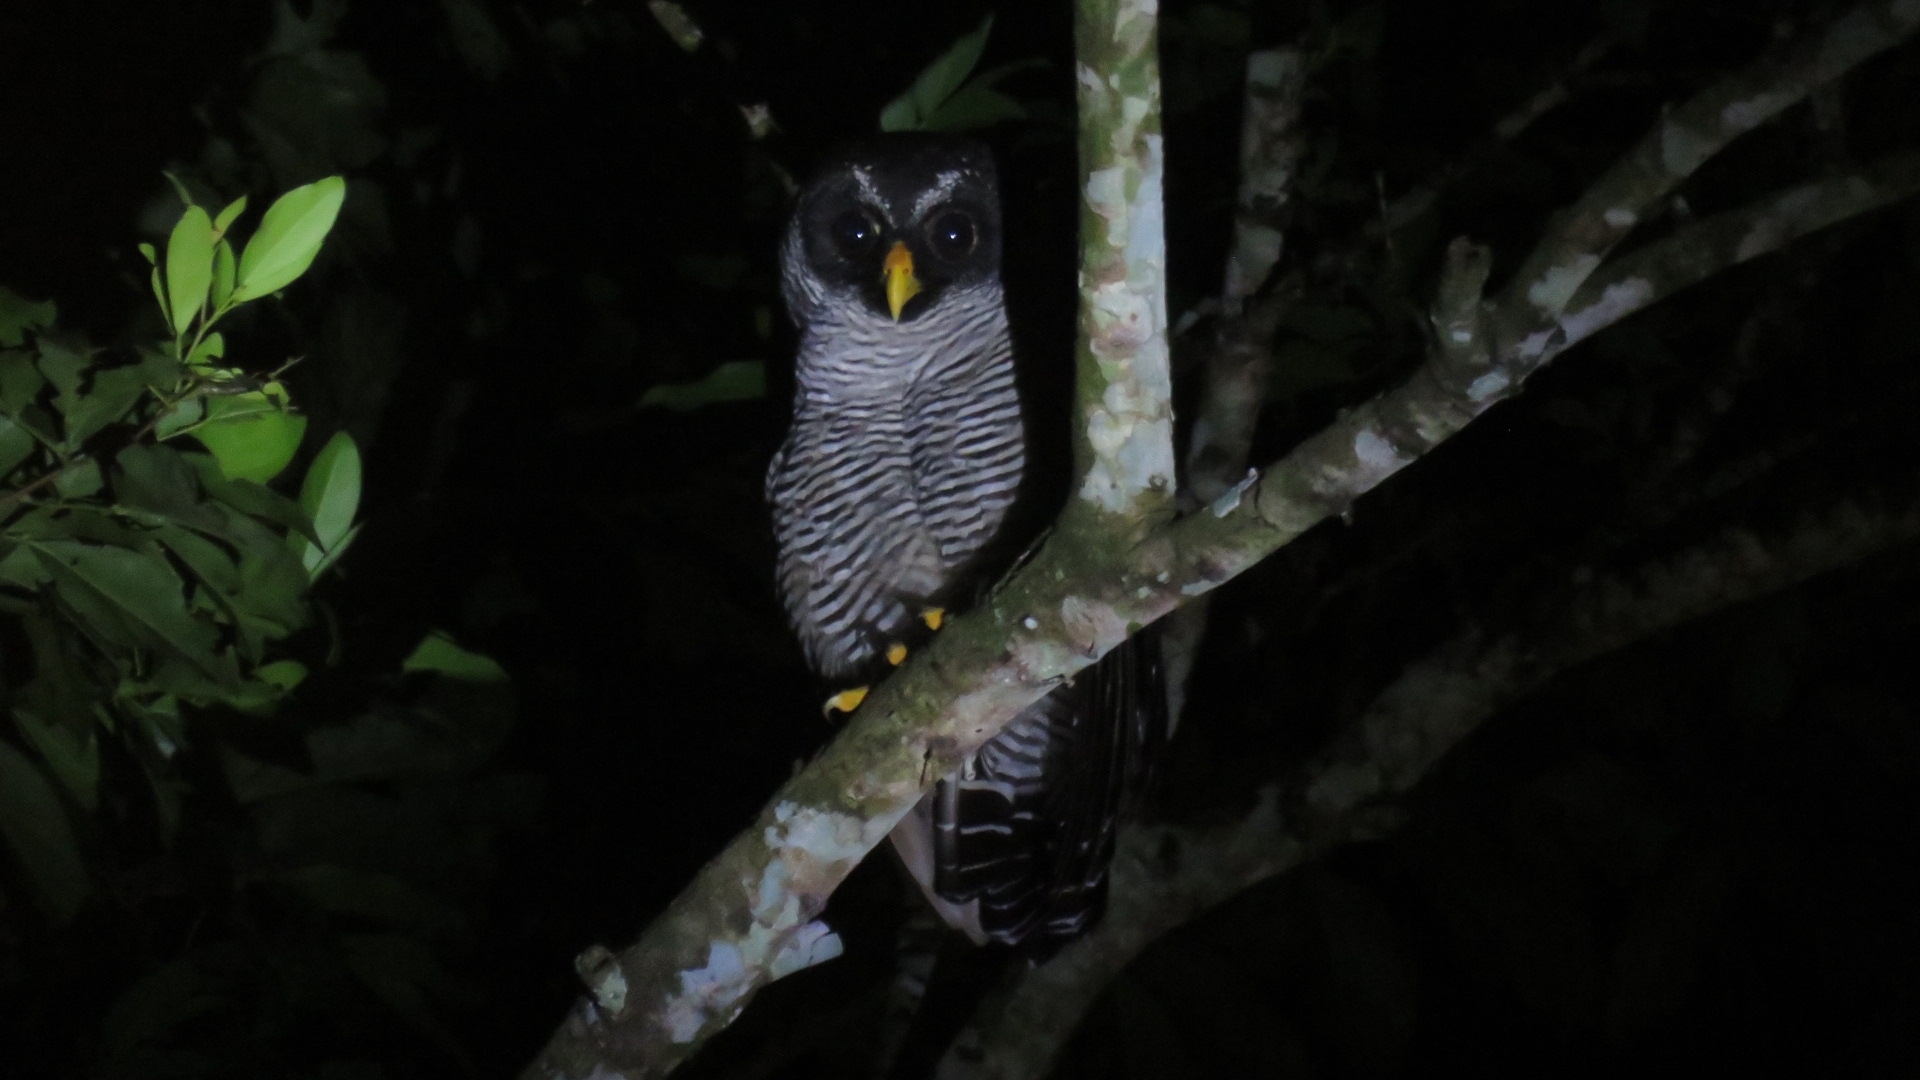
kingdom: Animalia
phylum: Chordata
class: Aves
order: Strigiformes
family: Strigidae
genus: Strix
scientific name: Strix nigrolineata
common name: Black-and-white owl
